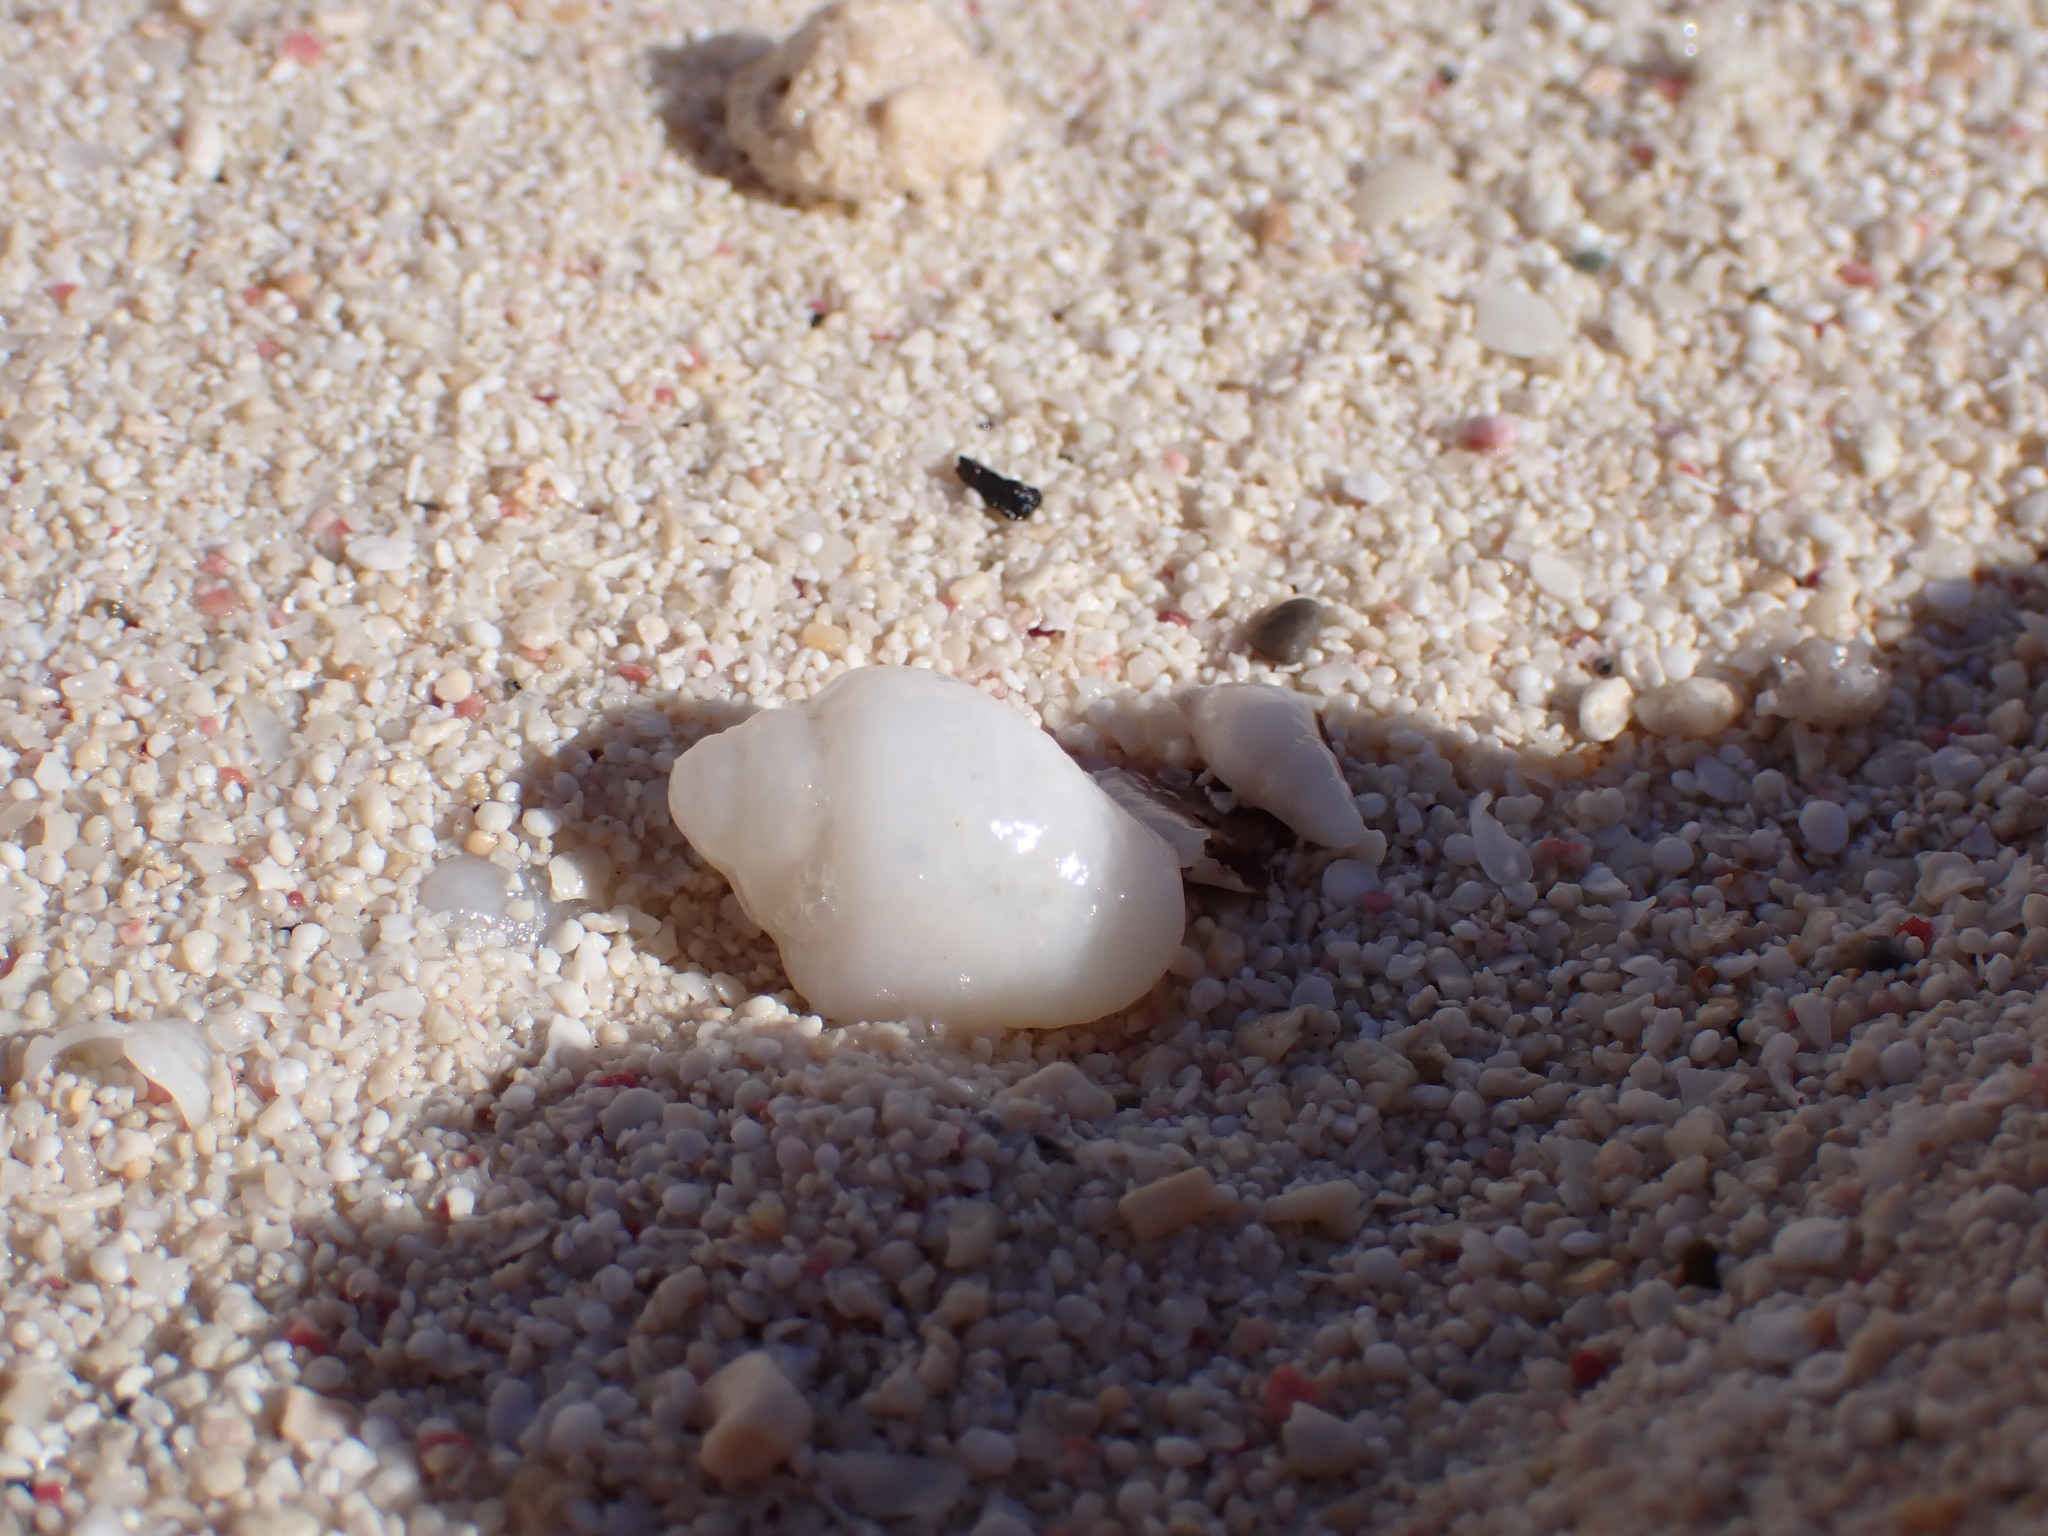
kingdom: Animalia
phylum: Mollusca
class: Gastropoda
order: Neogastropoda
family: Columbellidae
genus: Columbella
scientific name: Columbella mercatoria
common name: West indian dovesnail
